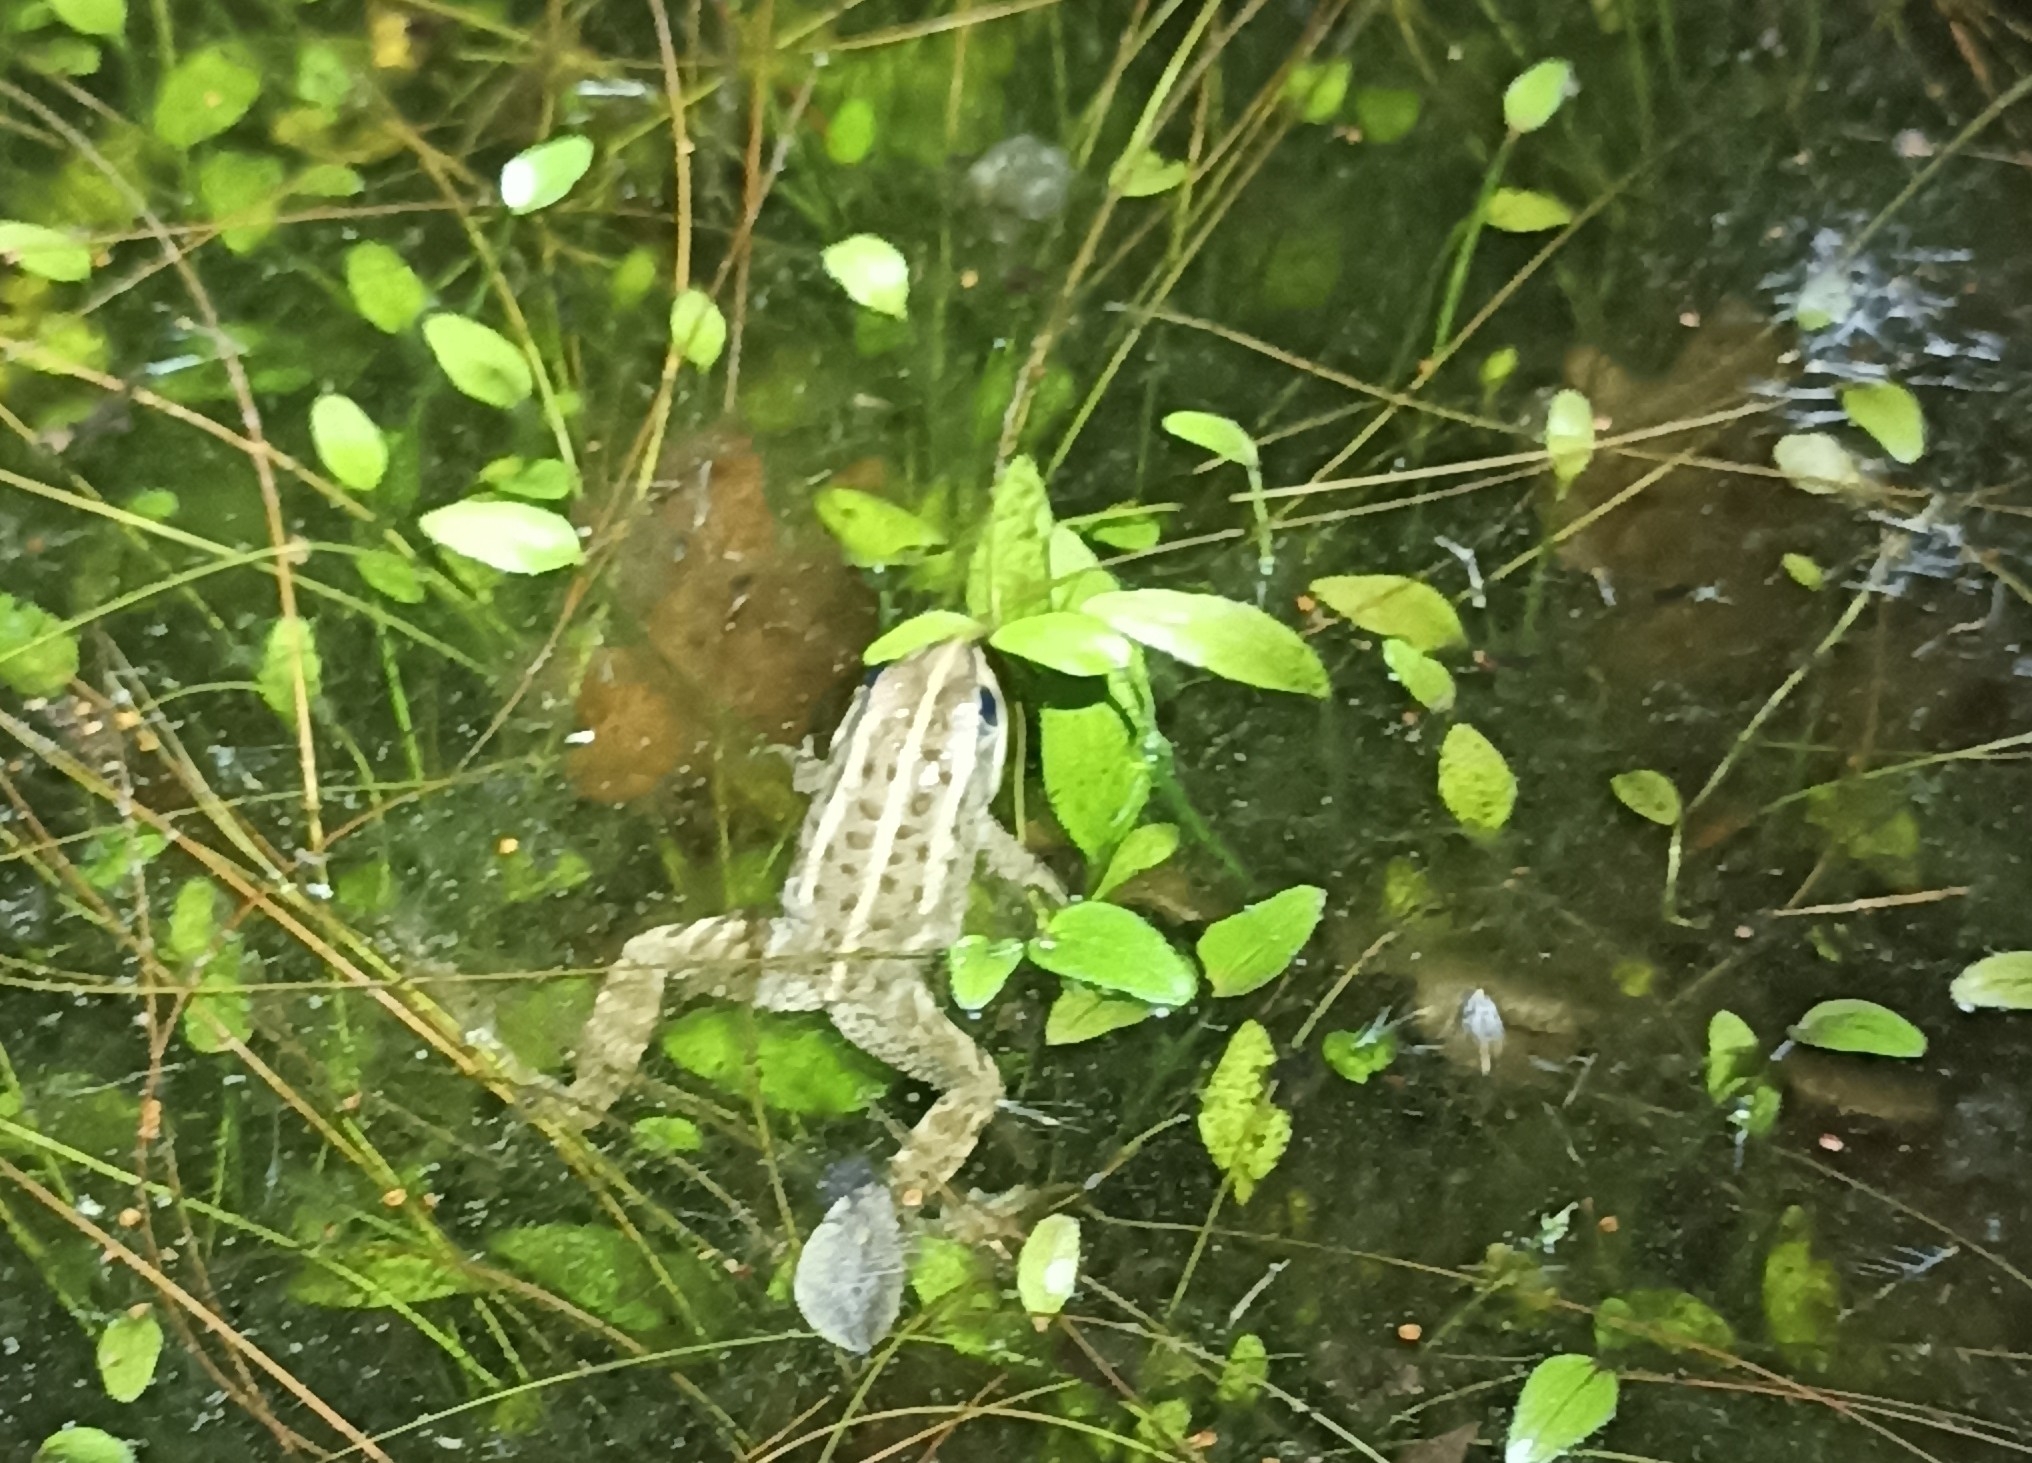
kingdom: Animalia
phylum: Chordata
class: Amphibia
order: Anura
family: Ranidae
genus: Pelophylax
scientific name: Pelophylax
